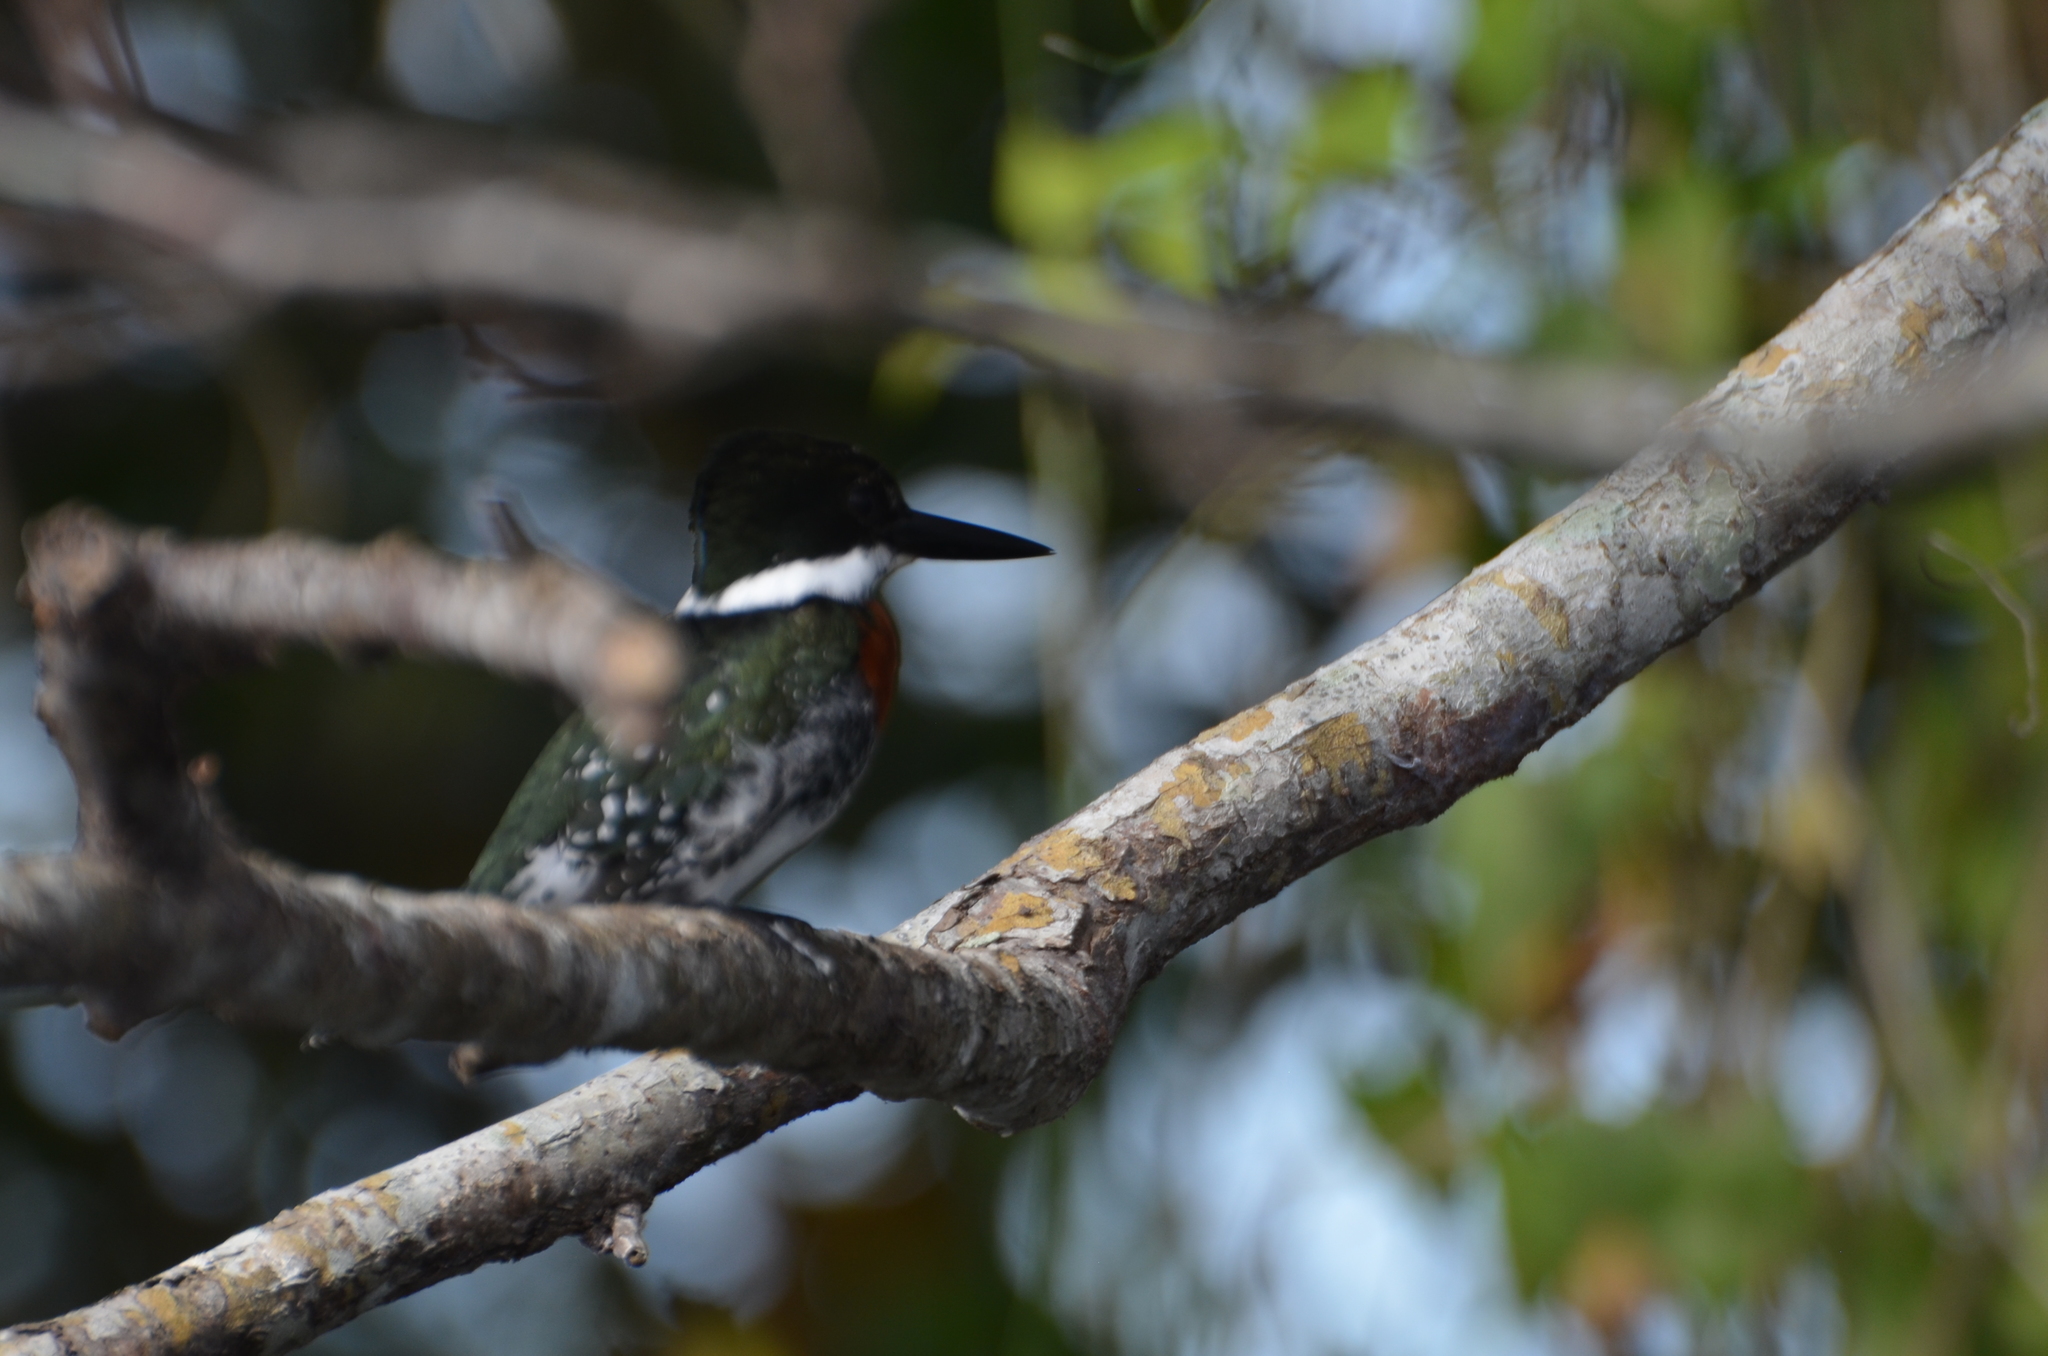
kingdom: Animalia
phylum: Chordata
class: Aves
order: Coraciiformes
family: Alcedinidae
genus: Chloroceryle
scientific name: Chloroceryle americana
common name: Green kingfisher
